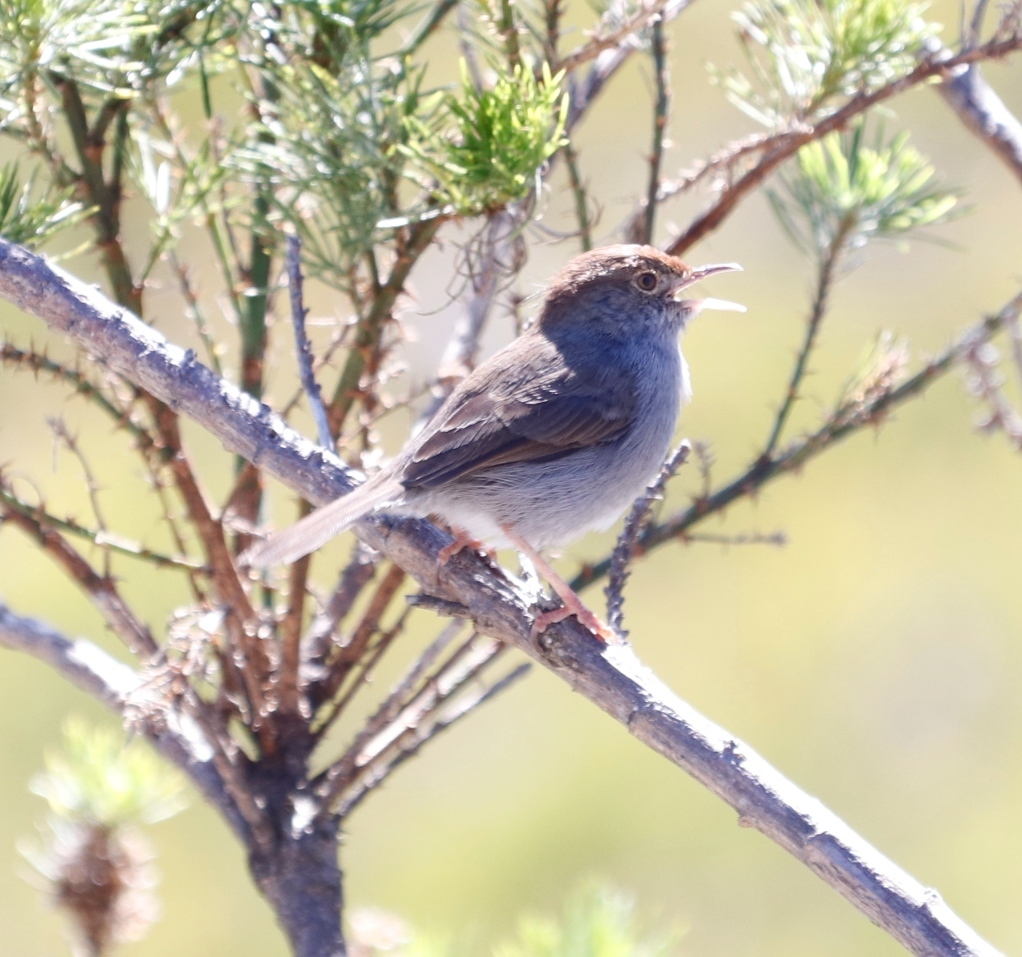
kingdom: Animalia
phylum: Chordata
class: Aves
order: Passeriformes
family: Cisticolidae
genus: Cisticola
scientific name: Cisticola fulvicapilla
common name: Neddicky
